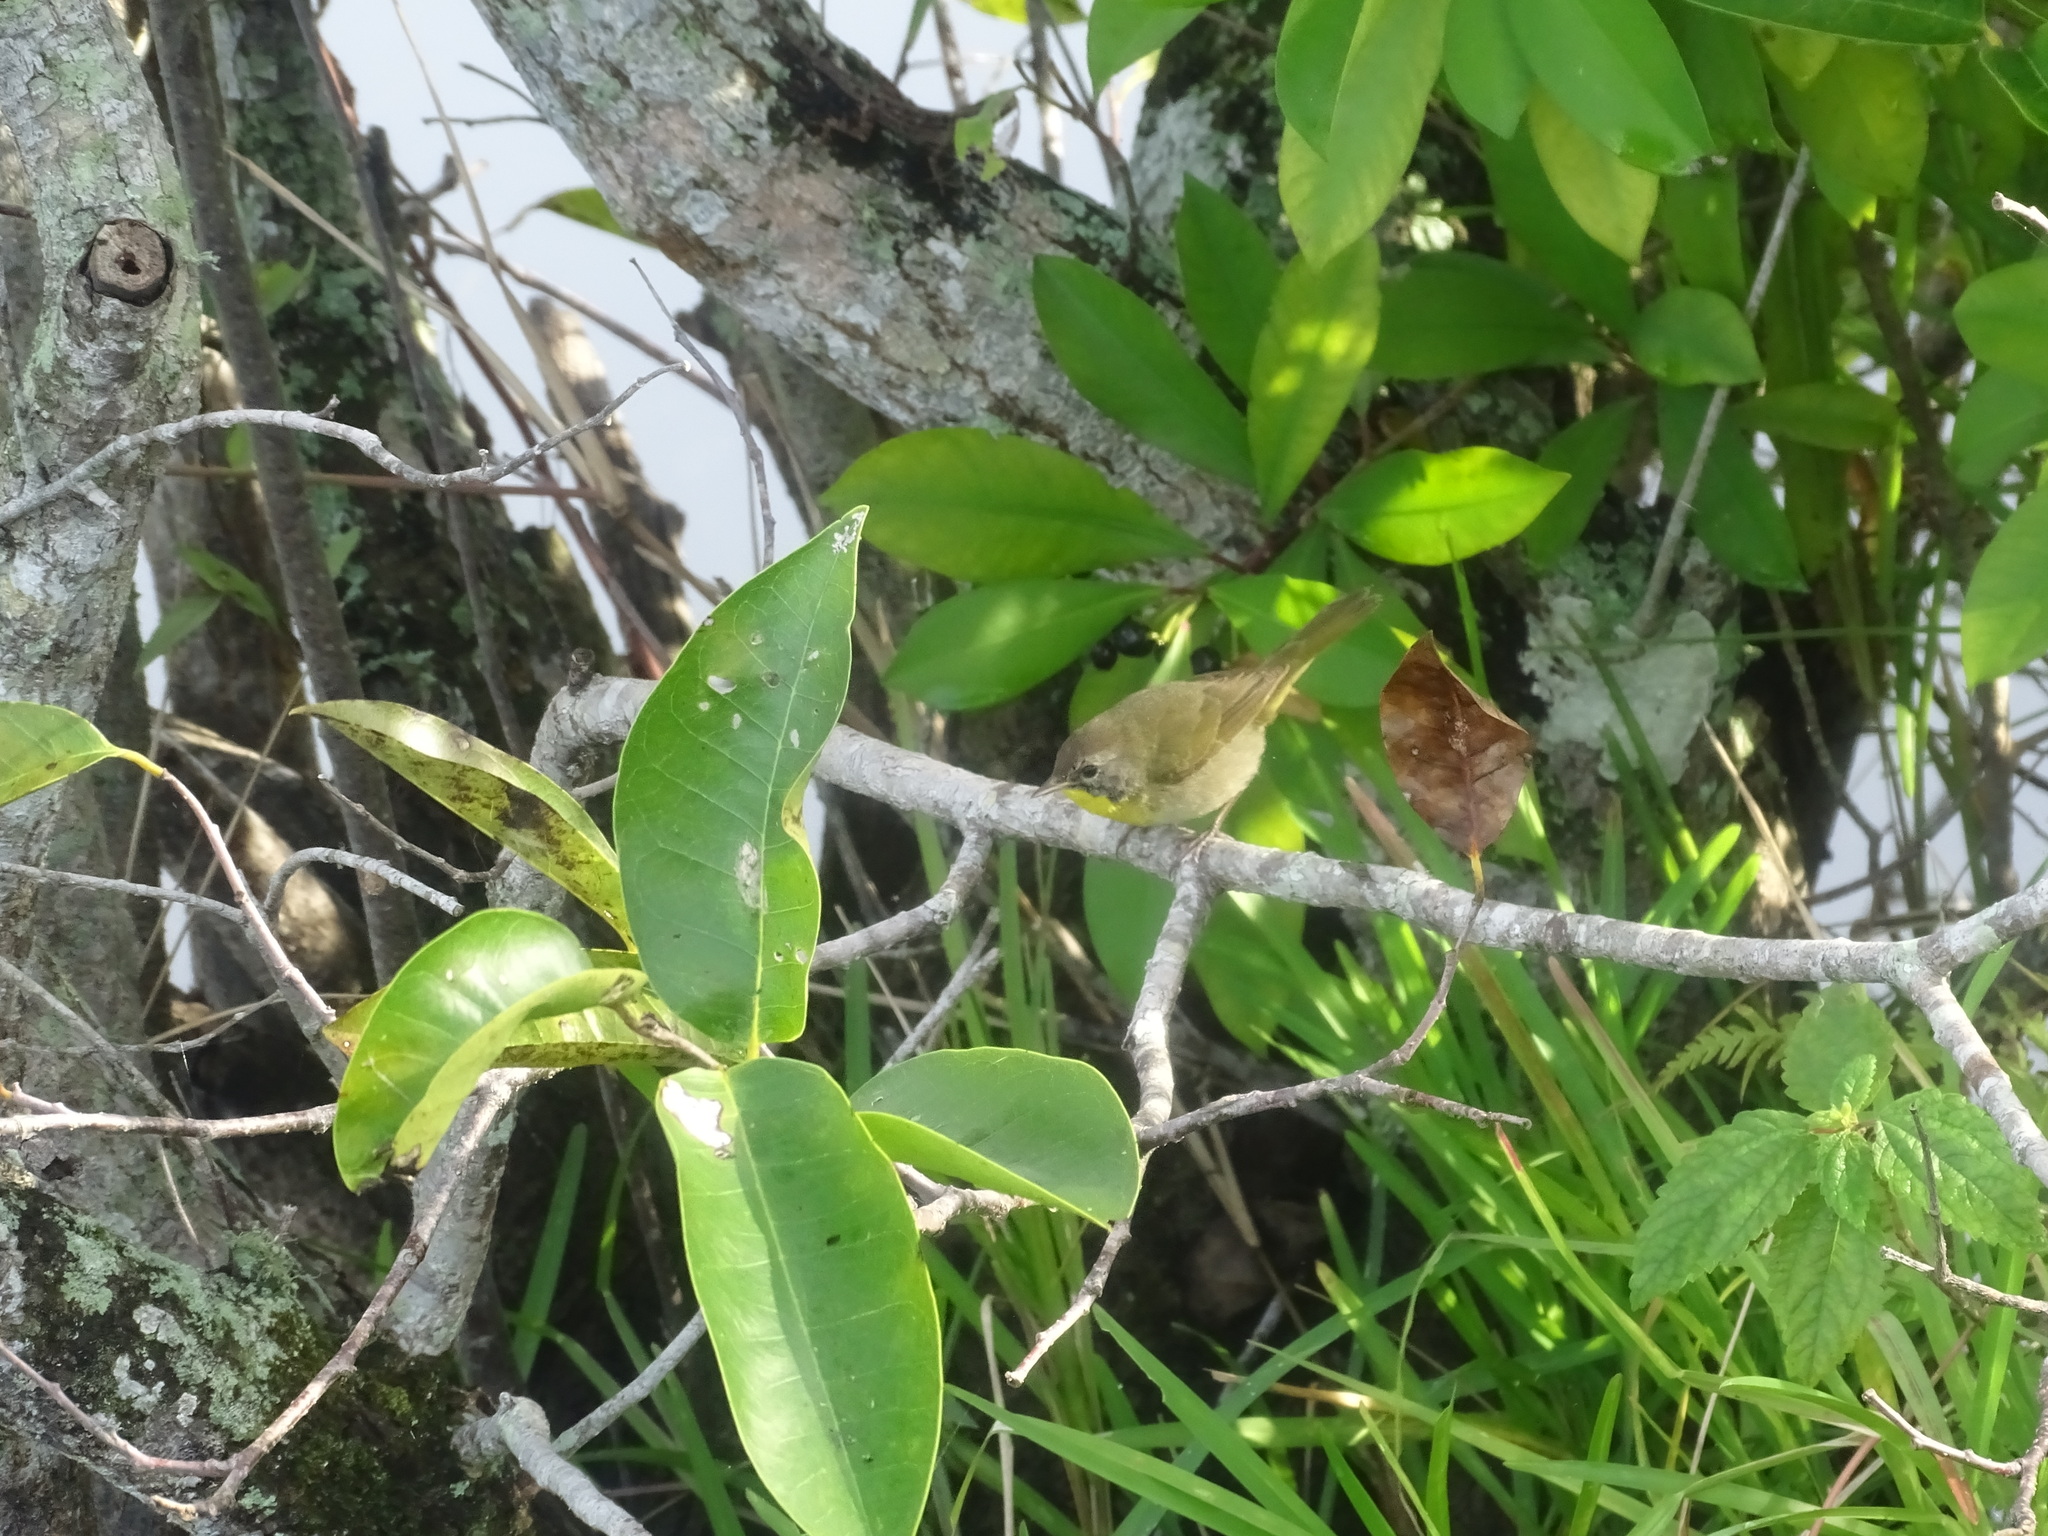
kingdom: Animalia
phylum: Chordata
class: Aves
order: Passeriformes
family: Parulidae
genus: Geothlypis
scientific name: Geothlypis trichas
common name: Common yellowthroat
